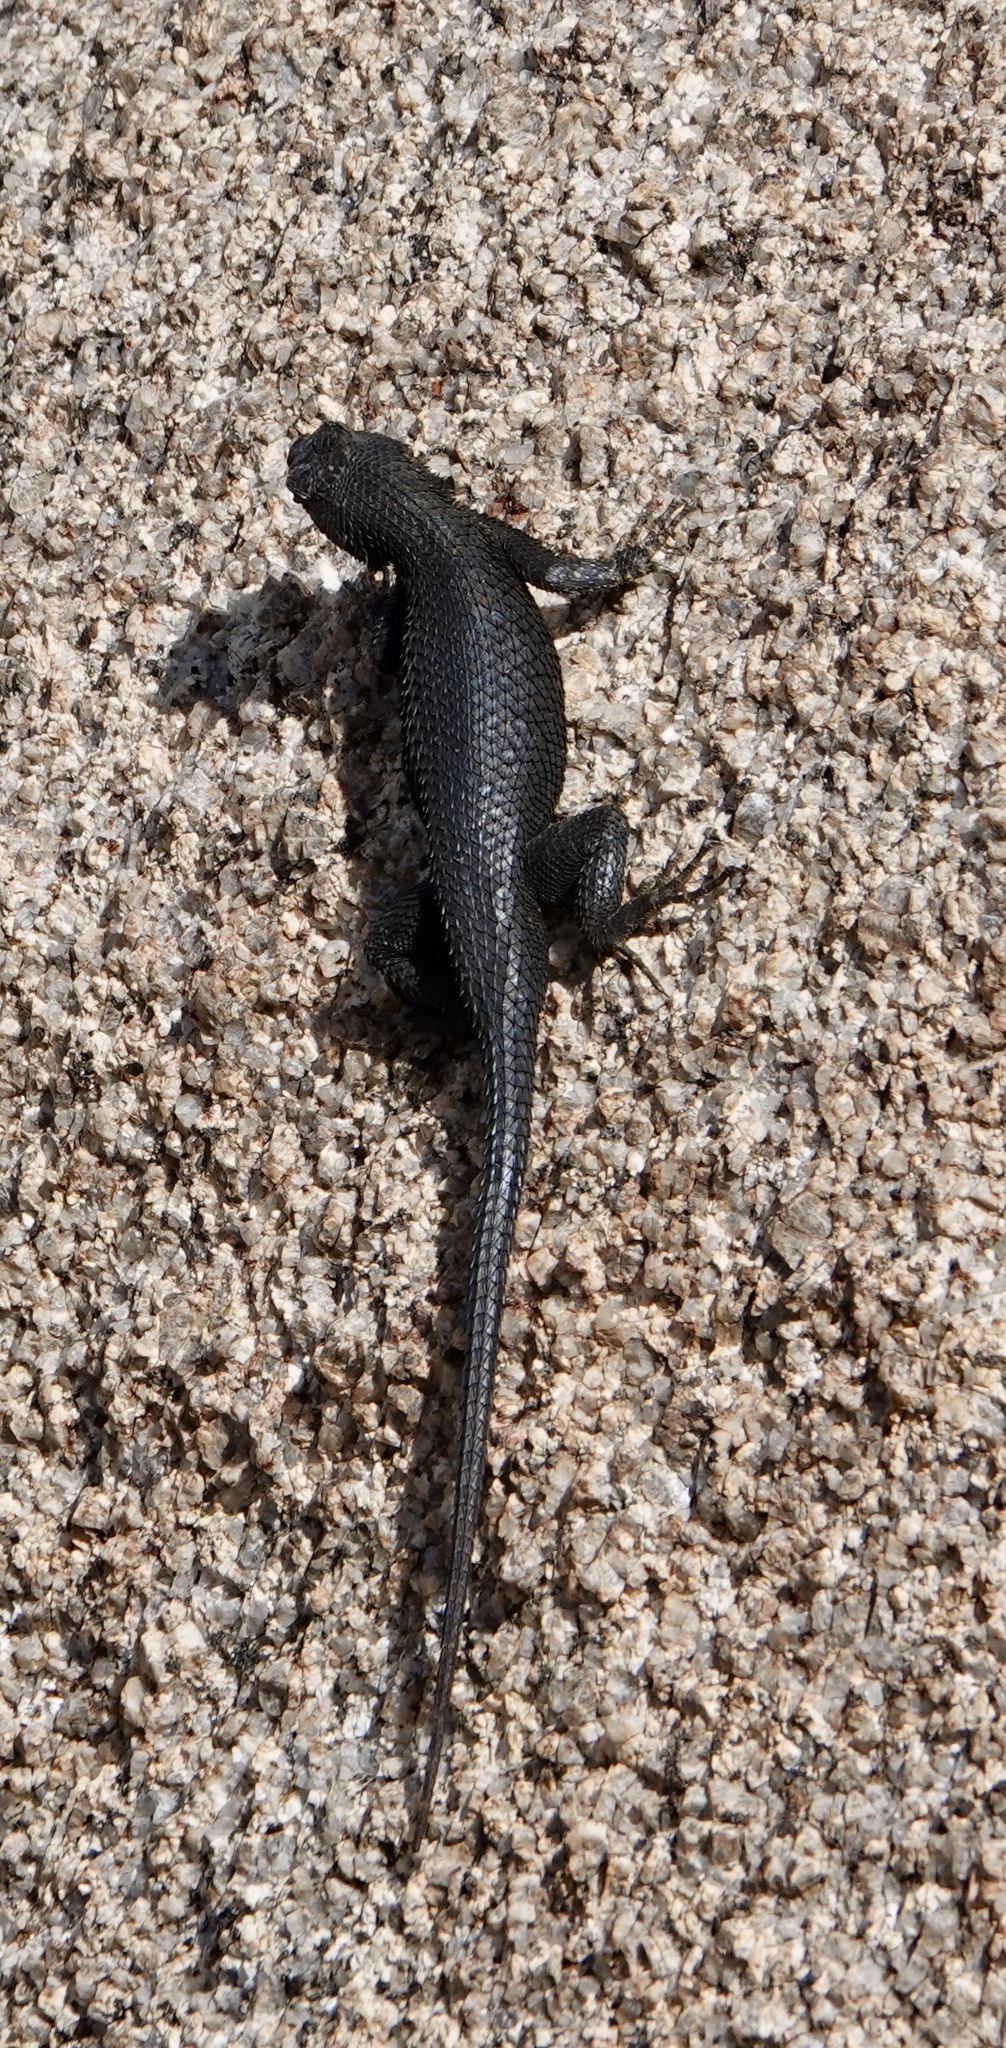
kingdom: Animalia
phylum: Chordata
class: Squamata
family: Phrynosomatidae
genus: Sceloporus
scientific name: Sceloporus occidentalis
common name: Western fence lizard
